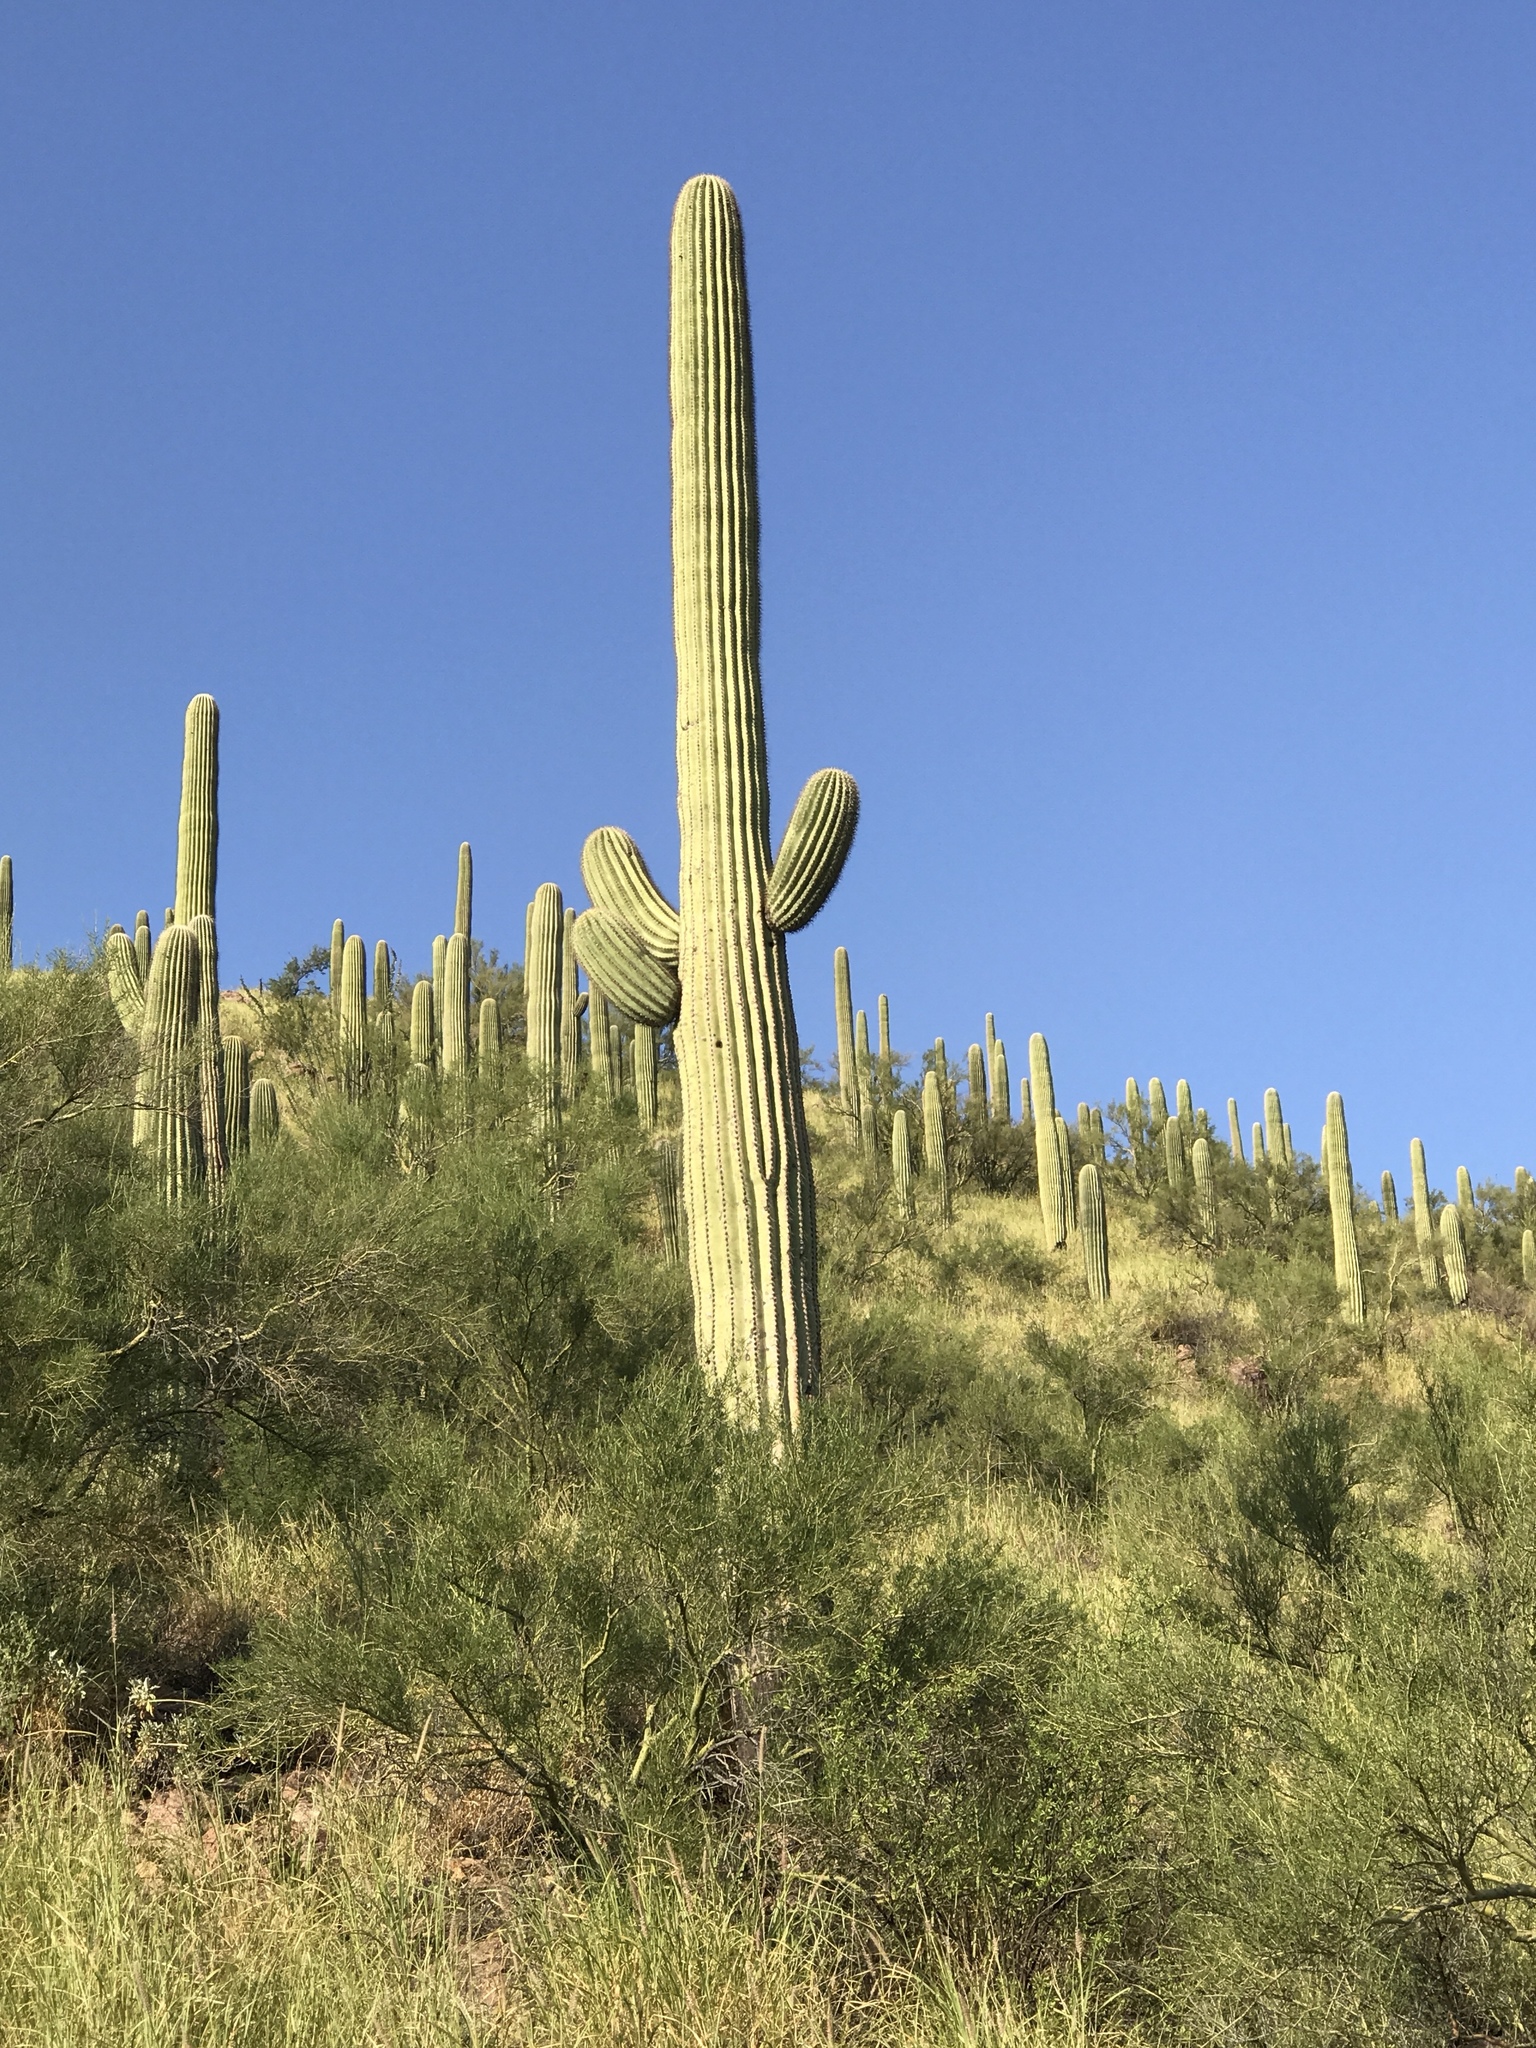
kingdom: Plantae
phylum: Tracheophyta
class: Magnoliopsida
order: Caryophyllales
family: Cactaceae
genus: Carnegiea
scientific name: Carnegiea gigantea
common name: Saguaro
